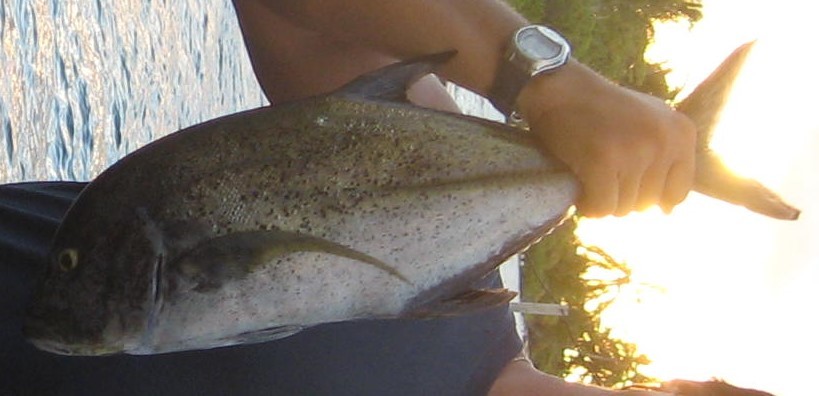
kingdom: Animalia
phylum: Chordata
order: Perciformes
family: Carangidae
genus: Caranx
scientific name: Caranx melampygus
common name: Bluefin trevally
